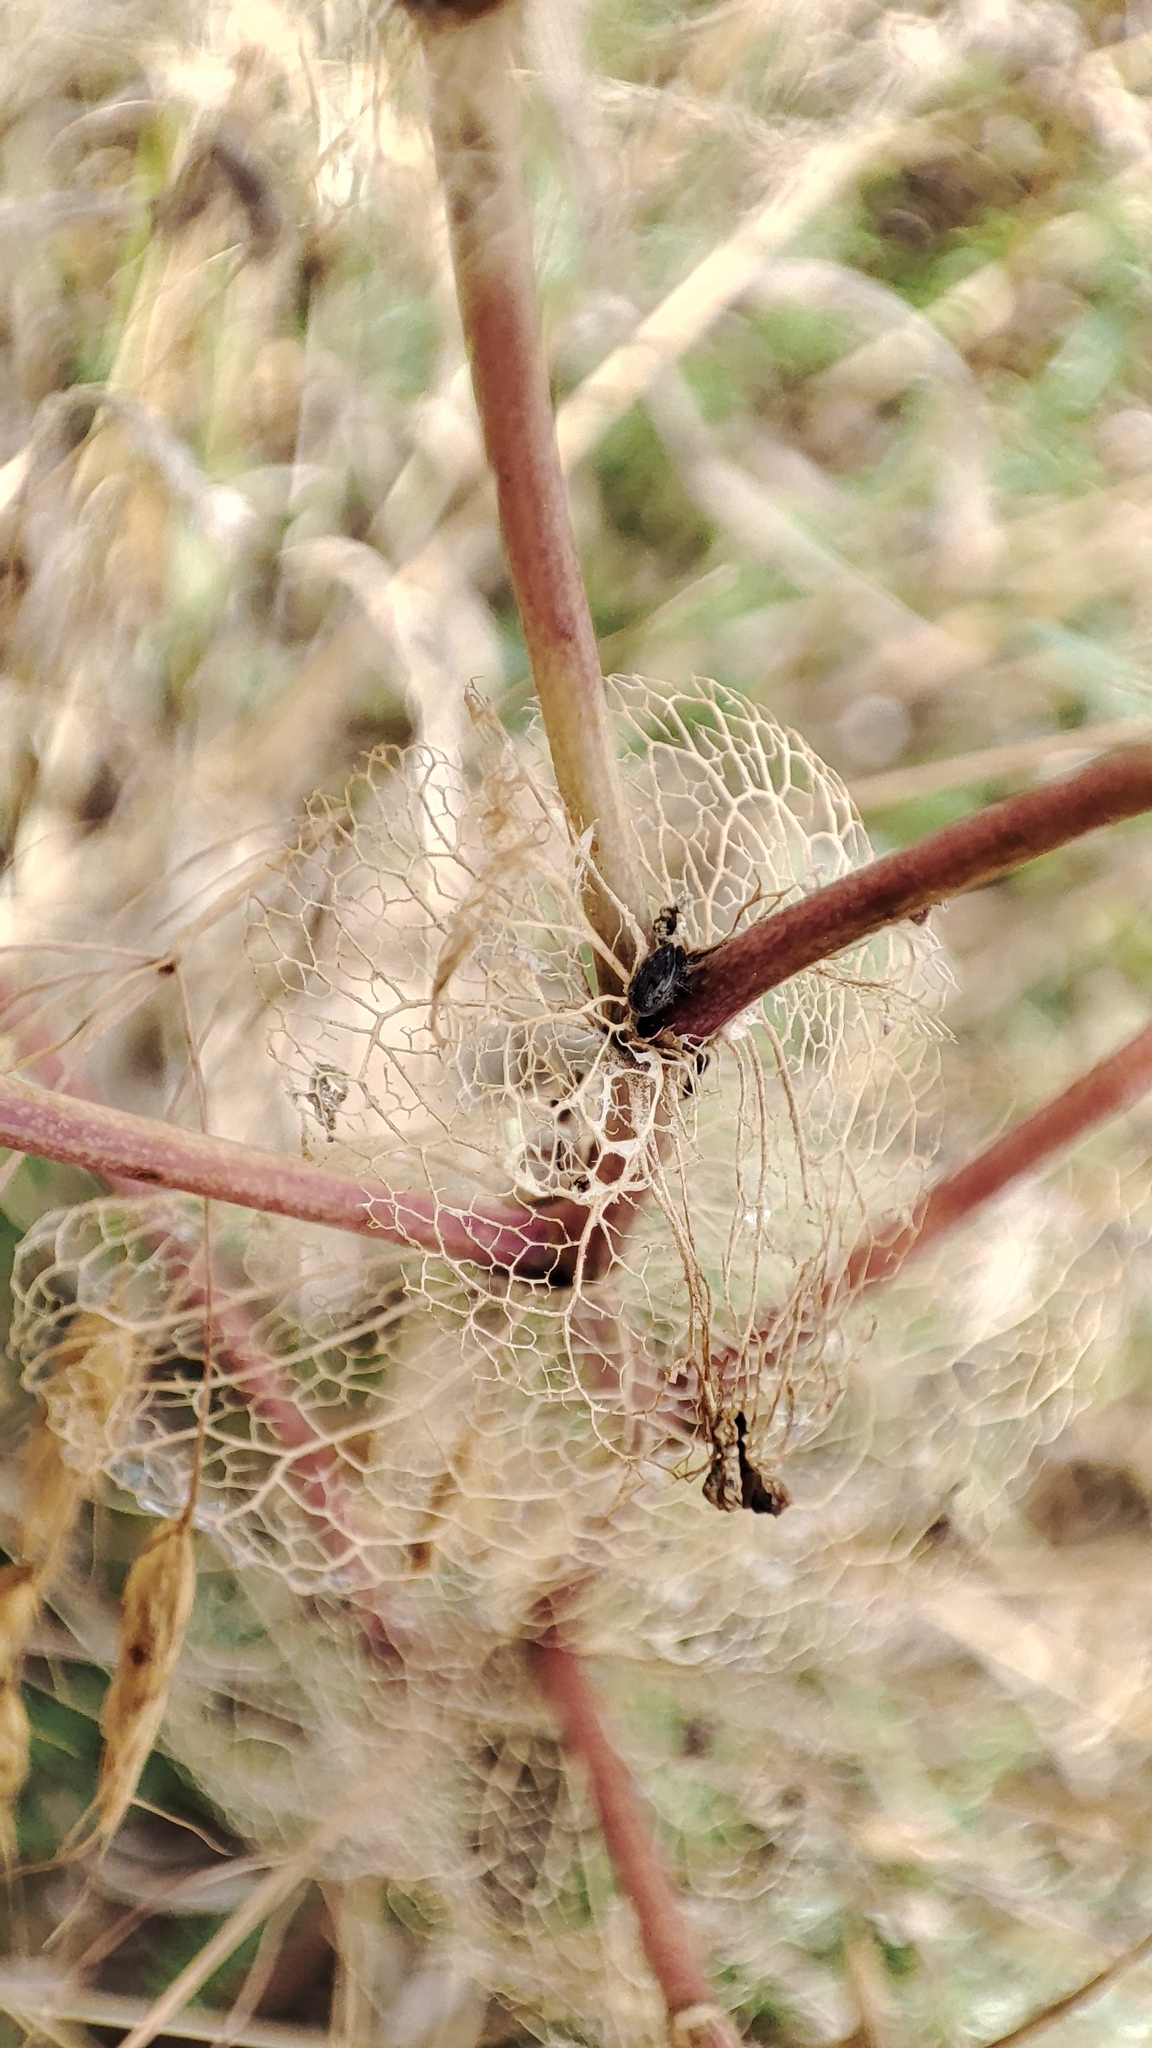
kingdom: Plantae
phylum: Tracheophyta
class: Magnoliopsida
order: Brassicales
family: Brassicaceae
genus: Lepidium
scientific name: Lepidium perfoliatum
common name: Perfoliate pepperwort
